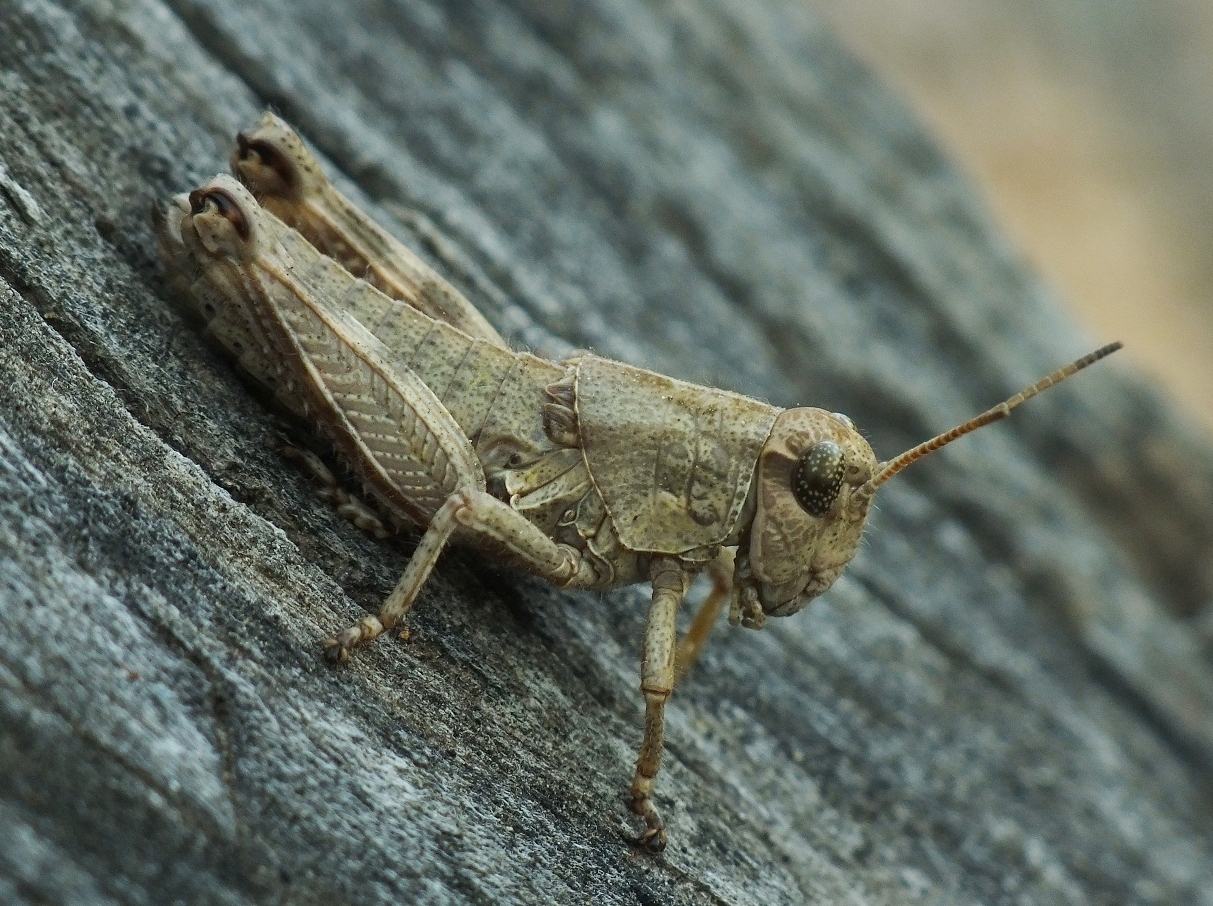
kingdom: Animalia
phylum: Arthropoda
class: Insecta
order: Orthoptera
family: Acrididae
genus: Podisma
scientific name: Podisma pedestris
